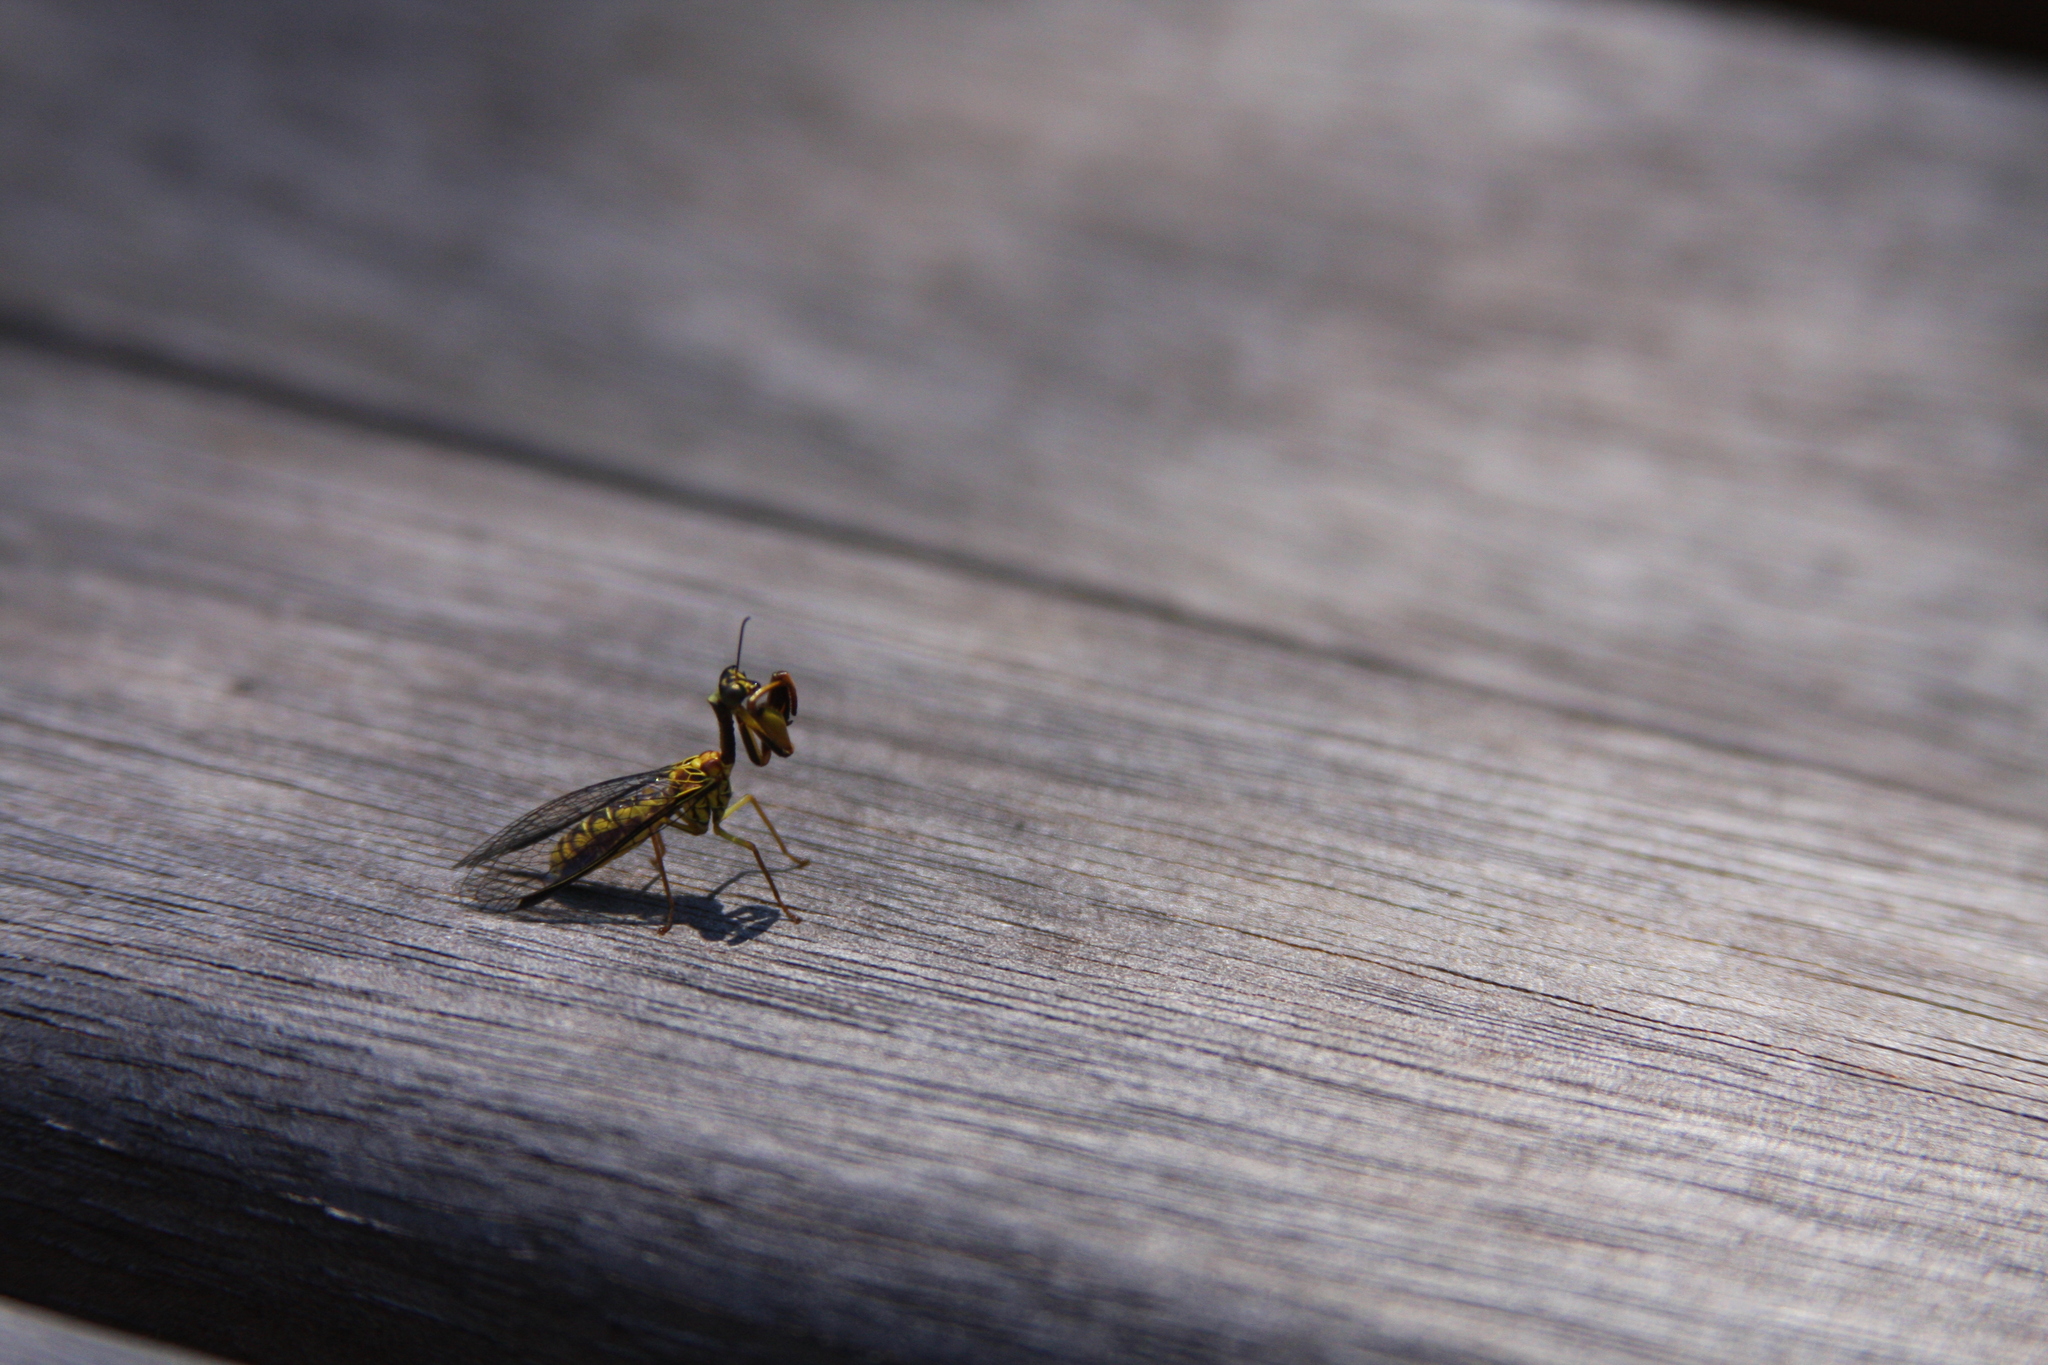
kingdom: Animalia
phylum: Arthropoda
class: Insecta
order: Neuroptera
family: Mantispidae
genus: Spaminta
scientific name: Spaminta minjerribae
